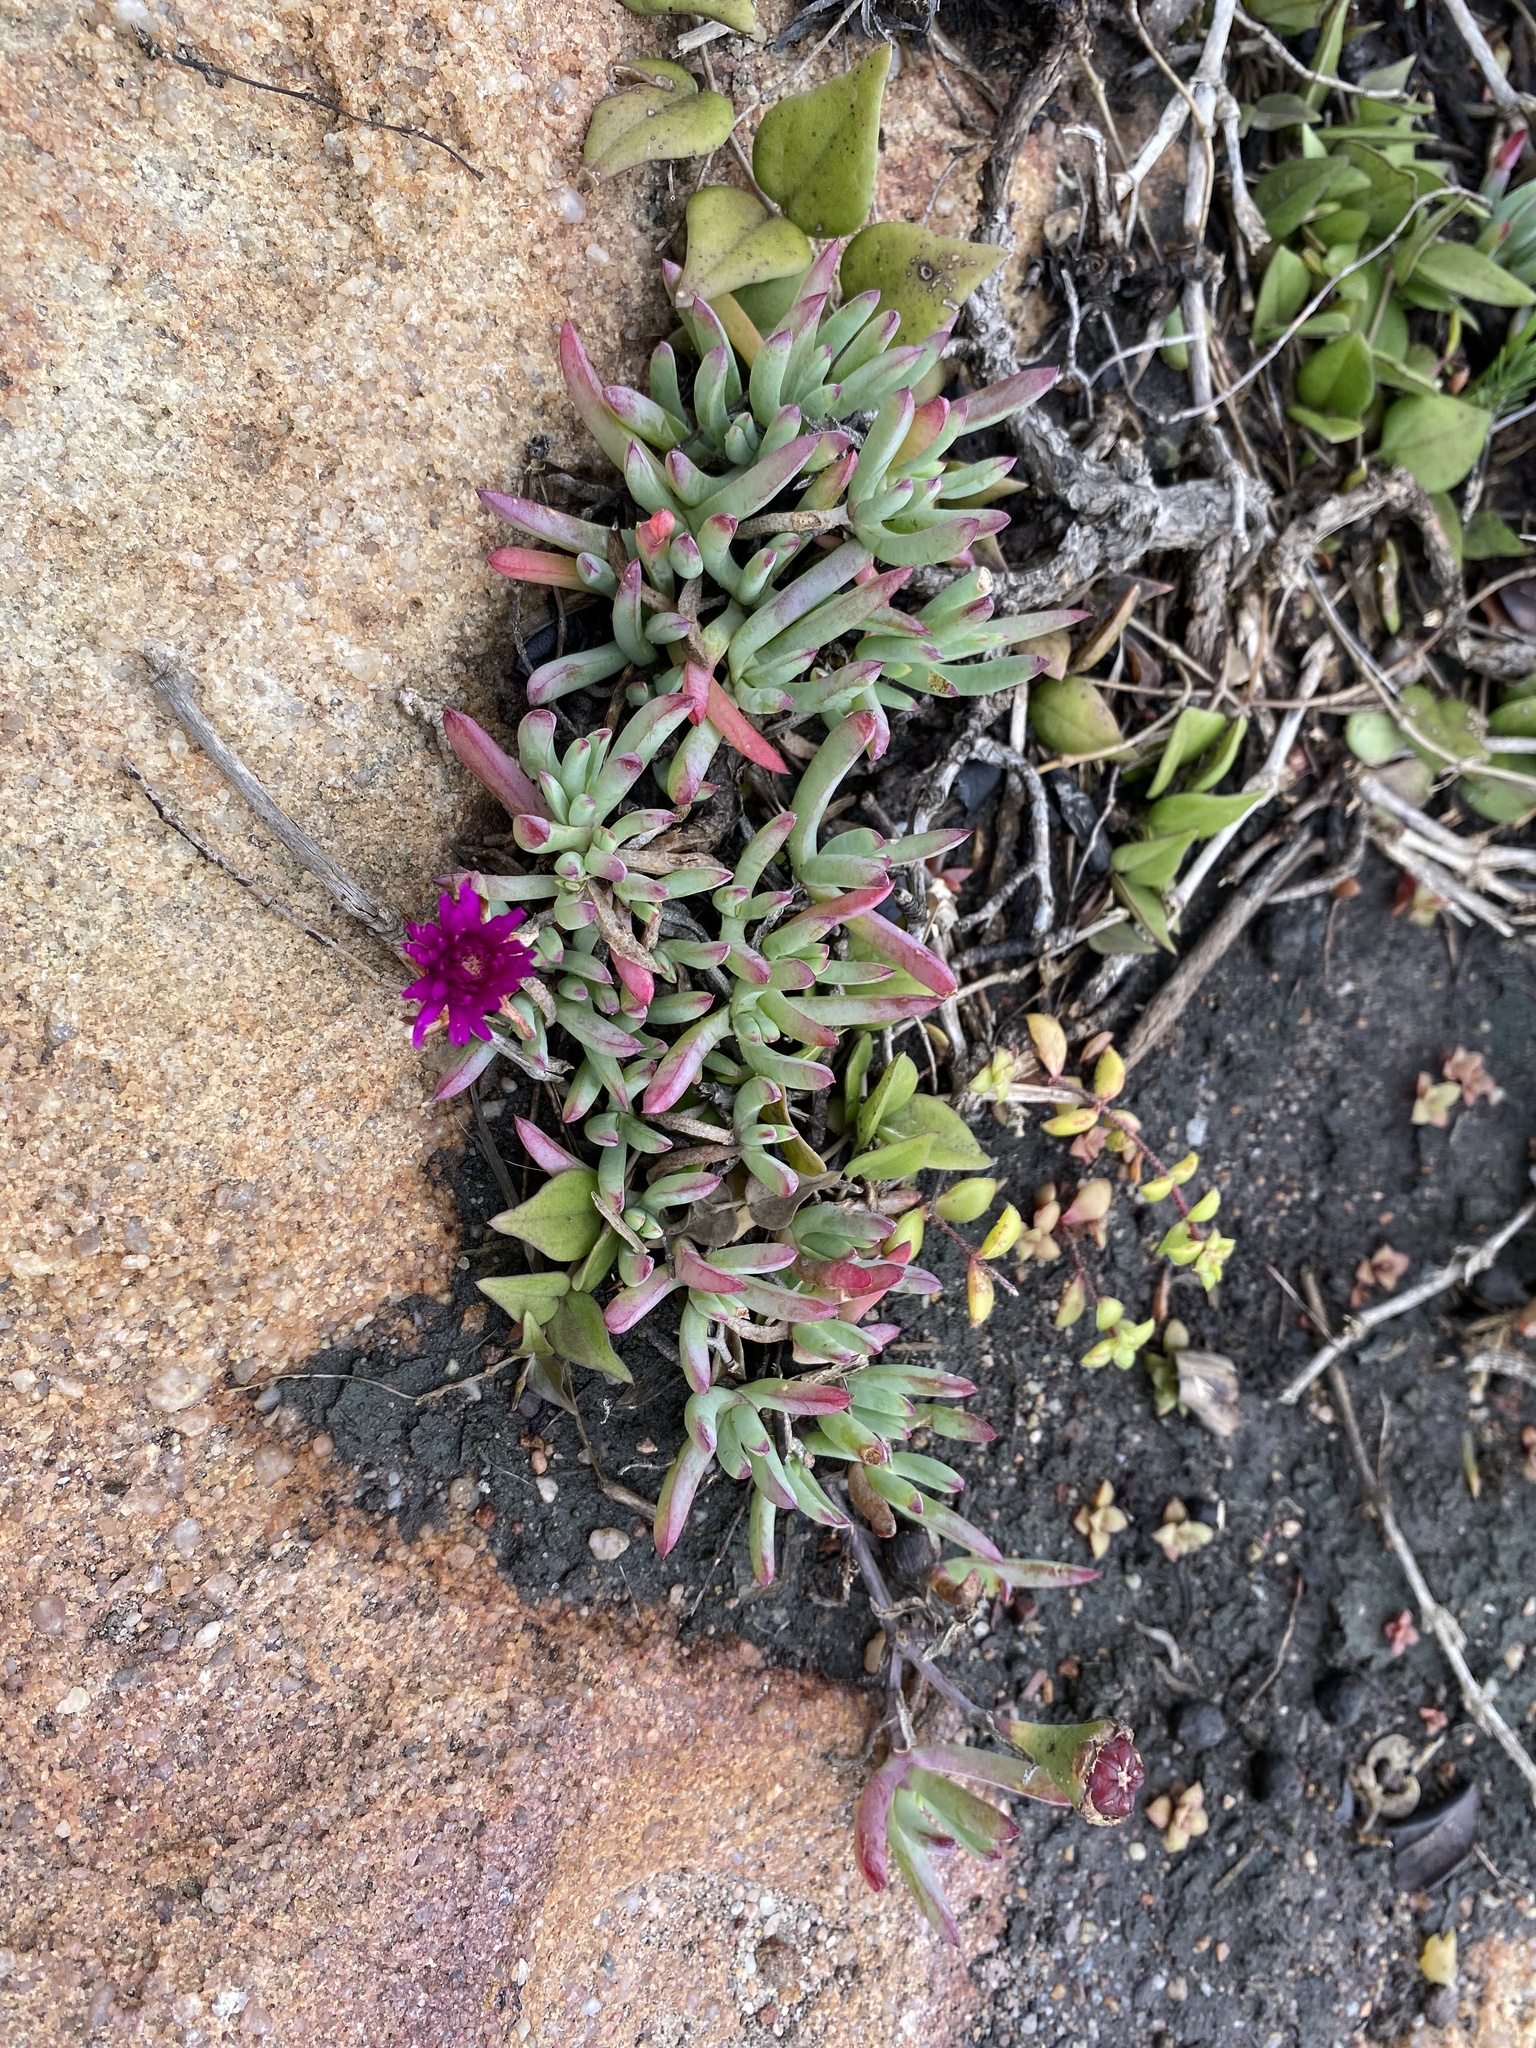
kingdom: Plantae
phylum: Tracheophyta
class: Magnoliopsida
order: Caryophyllales
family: Aizoaceae
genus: Lampranthus
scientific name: Lampranthus fugitans
